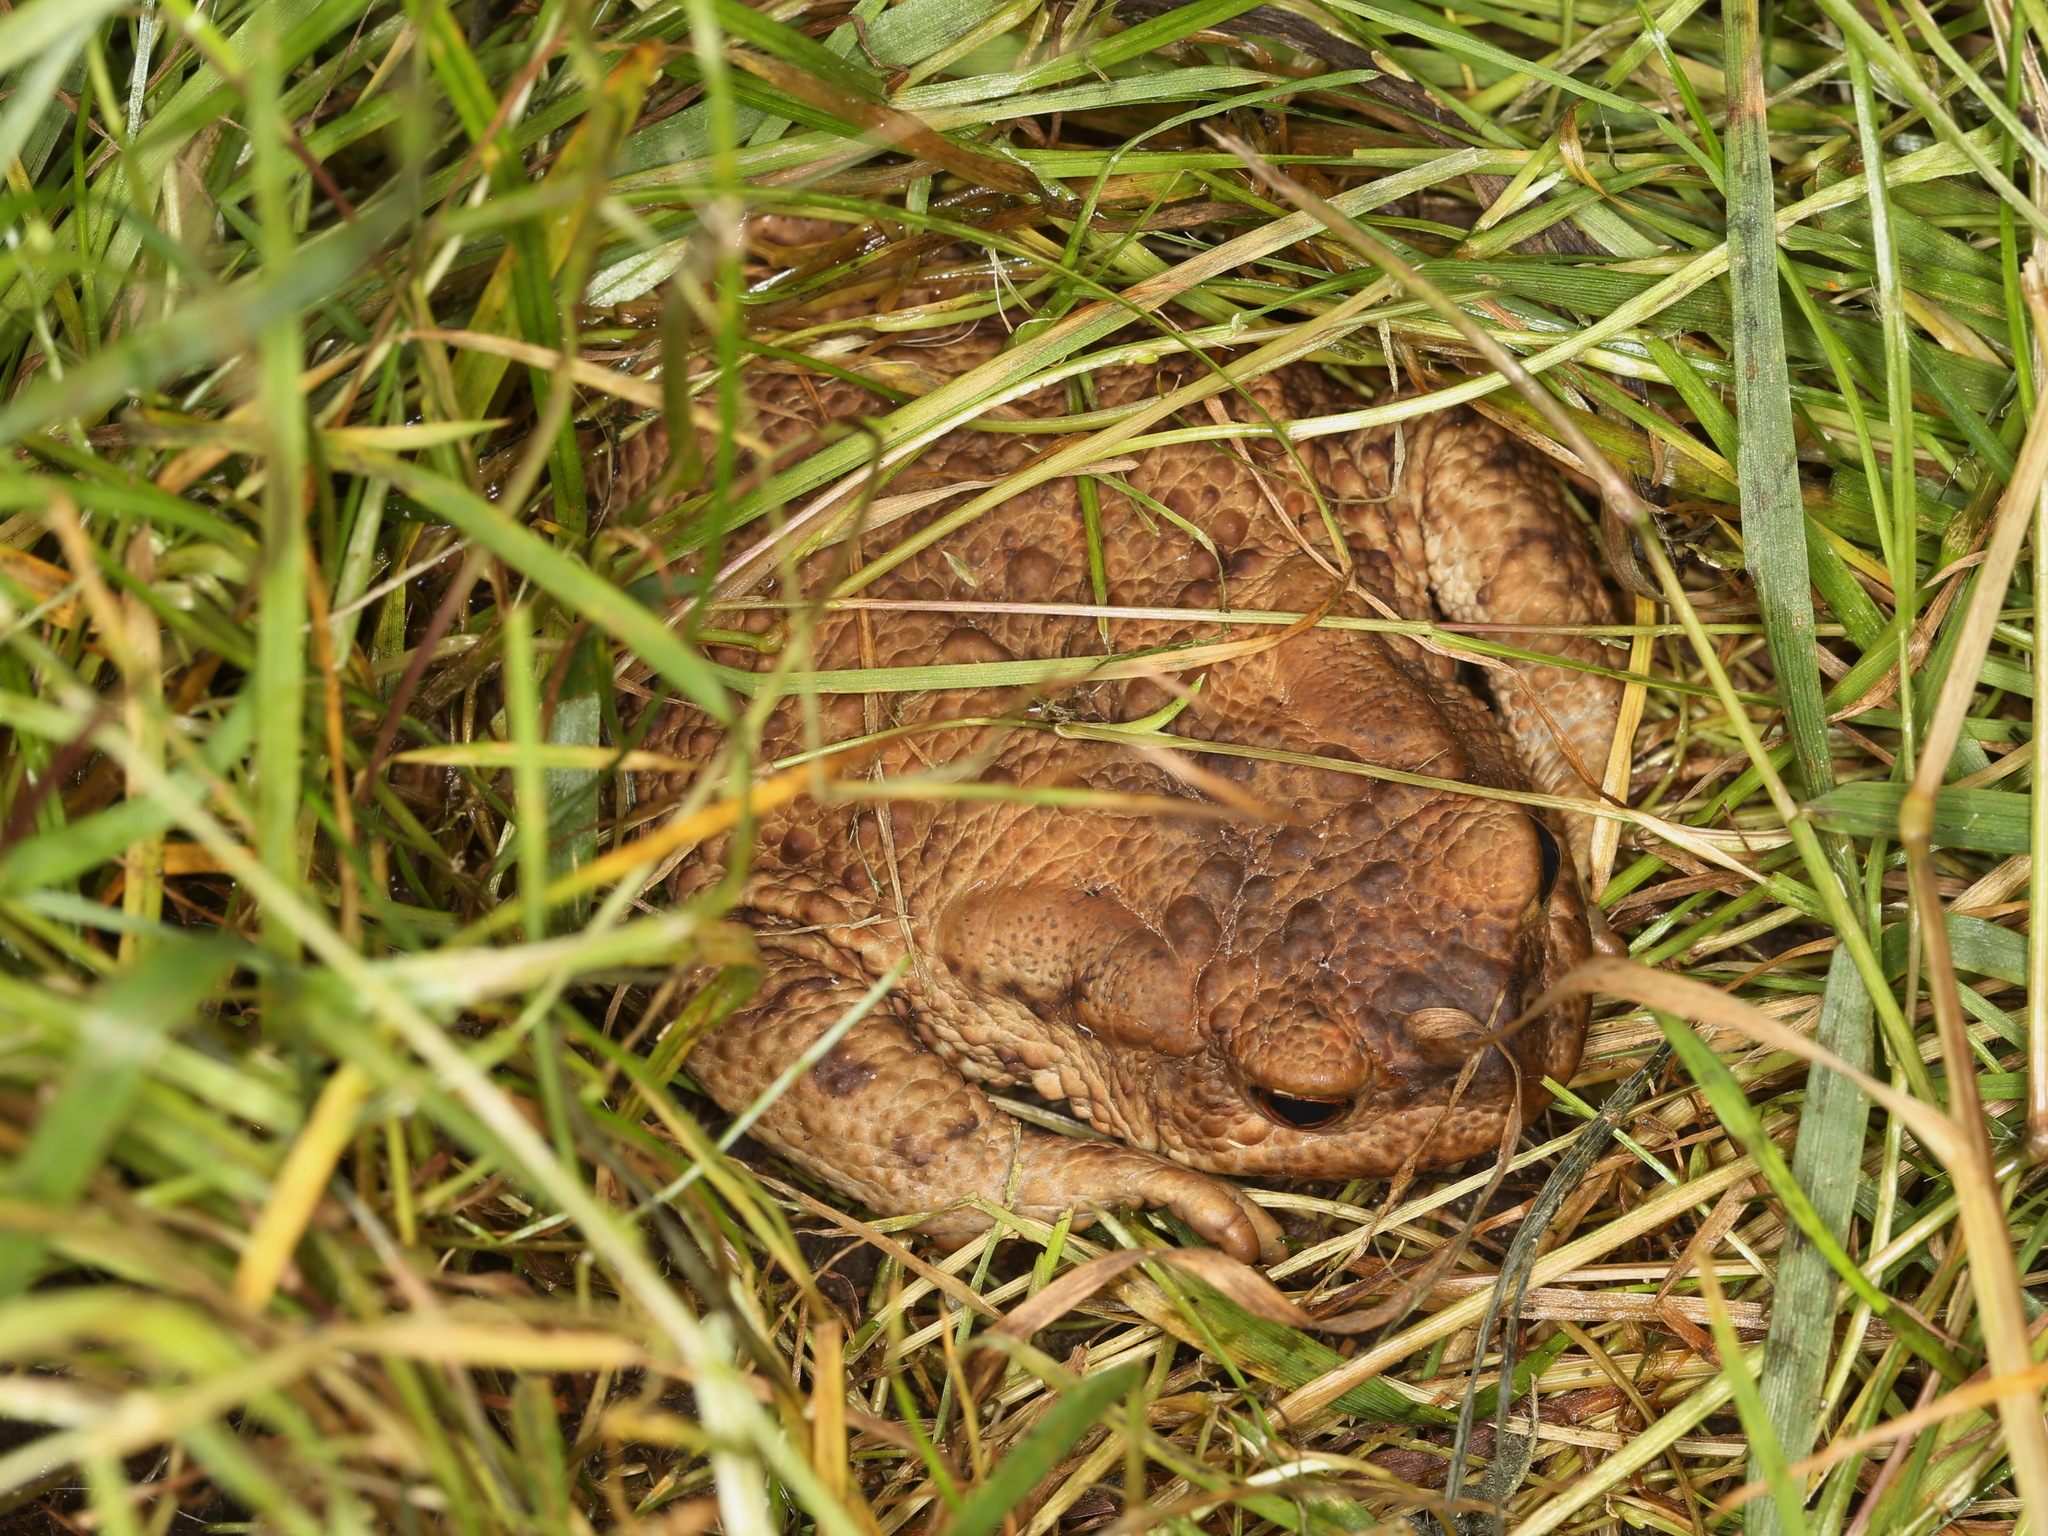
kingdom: Animalia
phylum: Chordata
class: Amphibia
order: Anura
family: Bufonidae
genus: Bufo
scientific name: Bufo bufo
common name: Common toad
